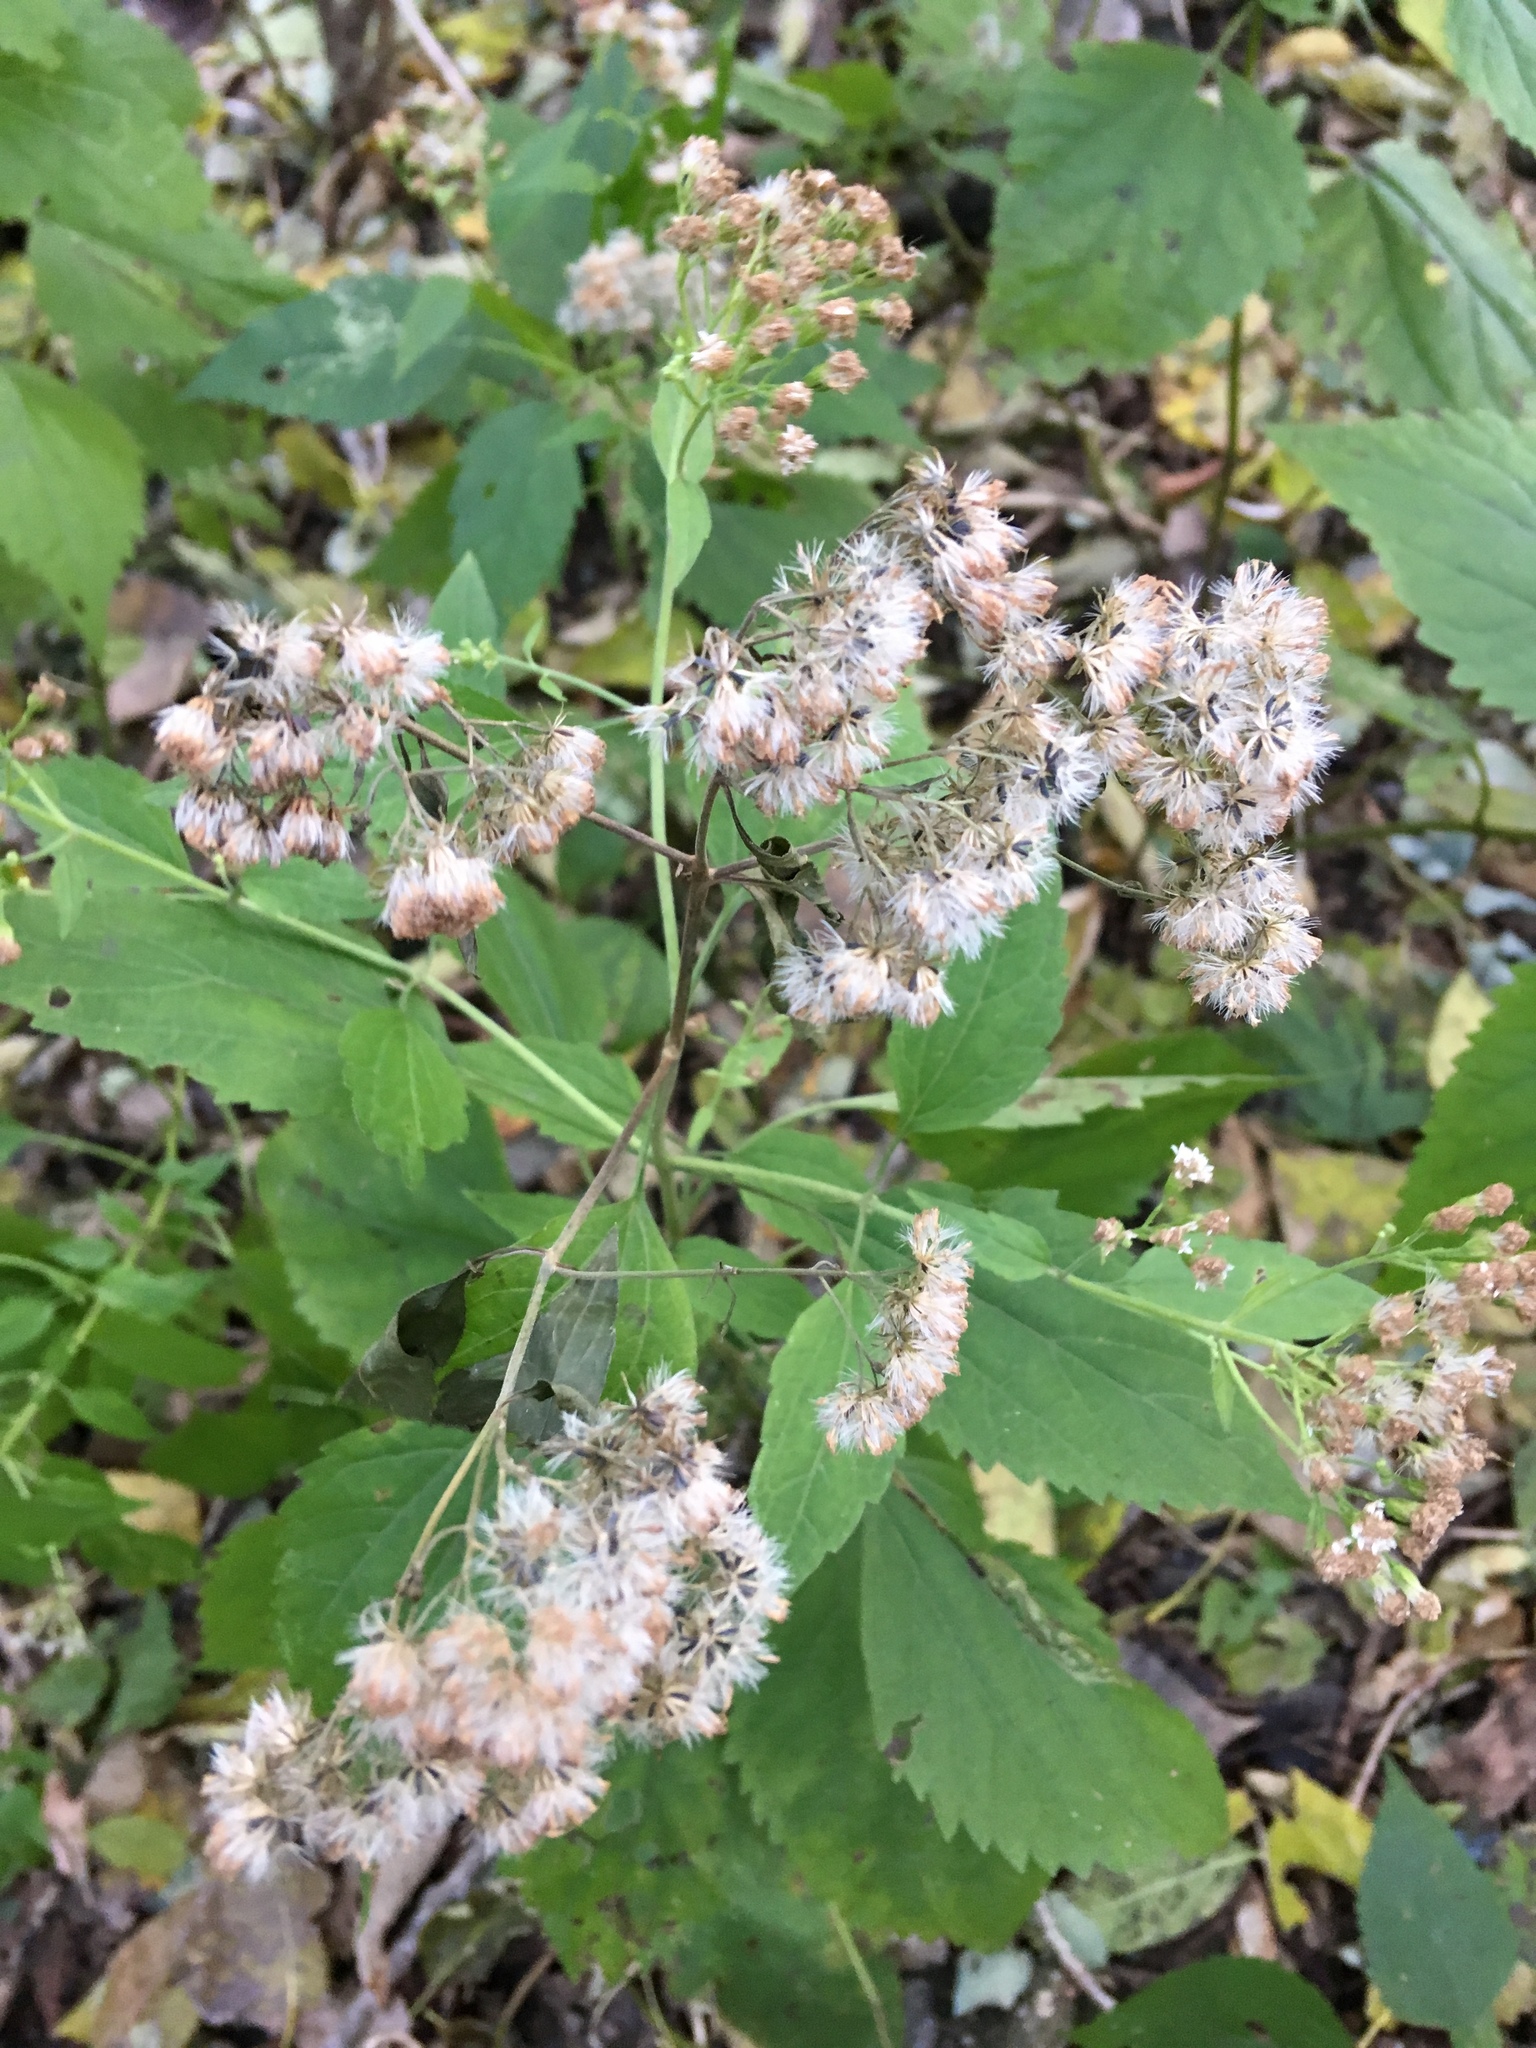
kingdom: Plantae
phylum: Tracheophyta
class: Magnoliopsida
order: Asterales
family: Asteraceae
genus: Ageratina
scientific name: Ageratina altissima
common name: White snakeroot
